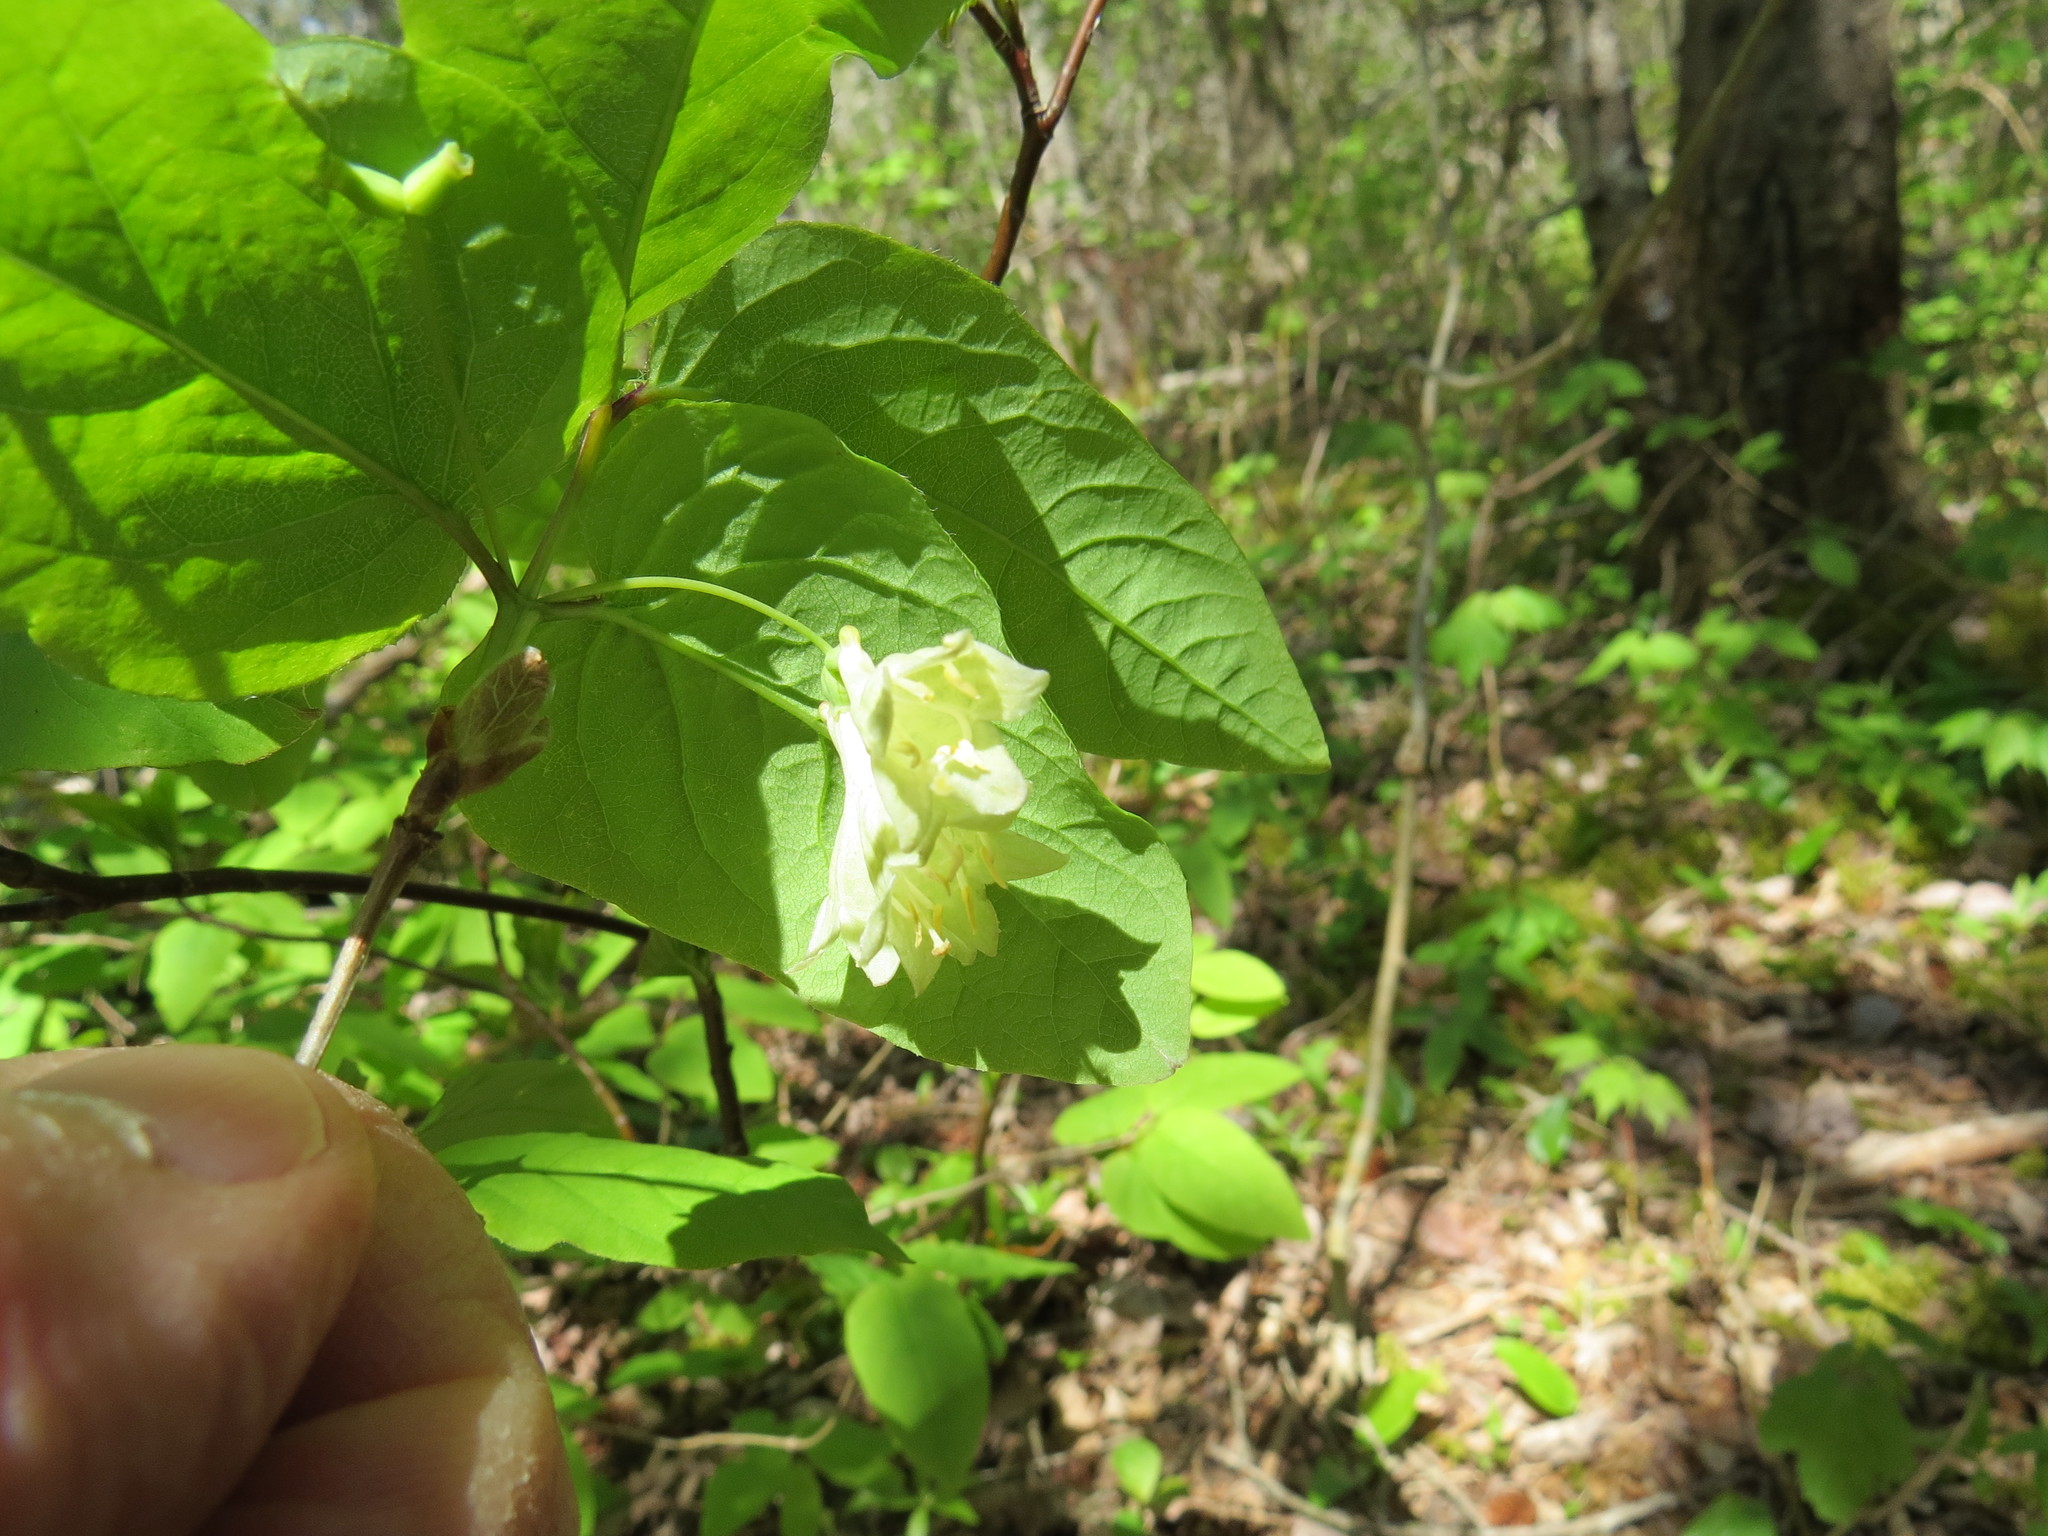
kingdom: Plantae
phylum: Tracheophyta
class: Magnoliopsida
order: Dipsacales
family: Caprifoliaceae
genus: Lonicera
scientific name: Lonicera canadensis
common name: American fly-honeysuckle
